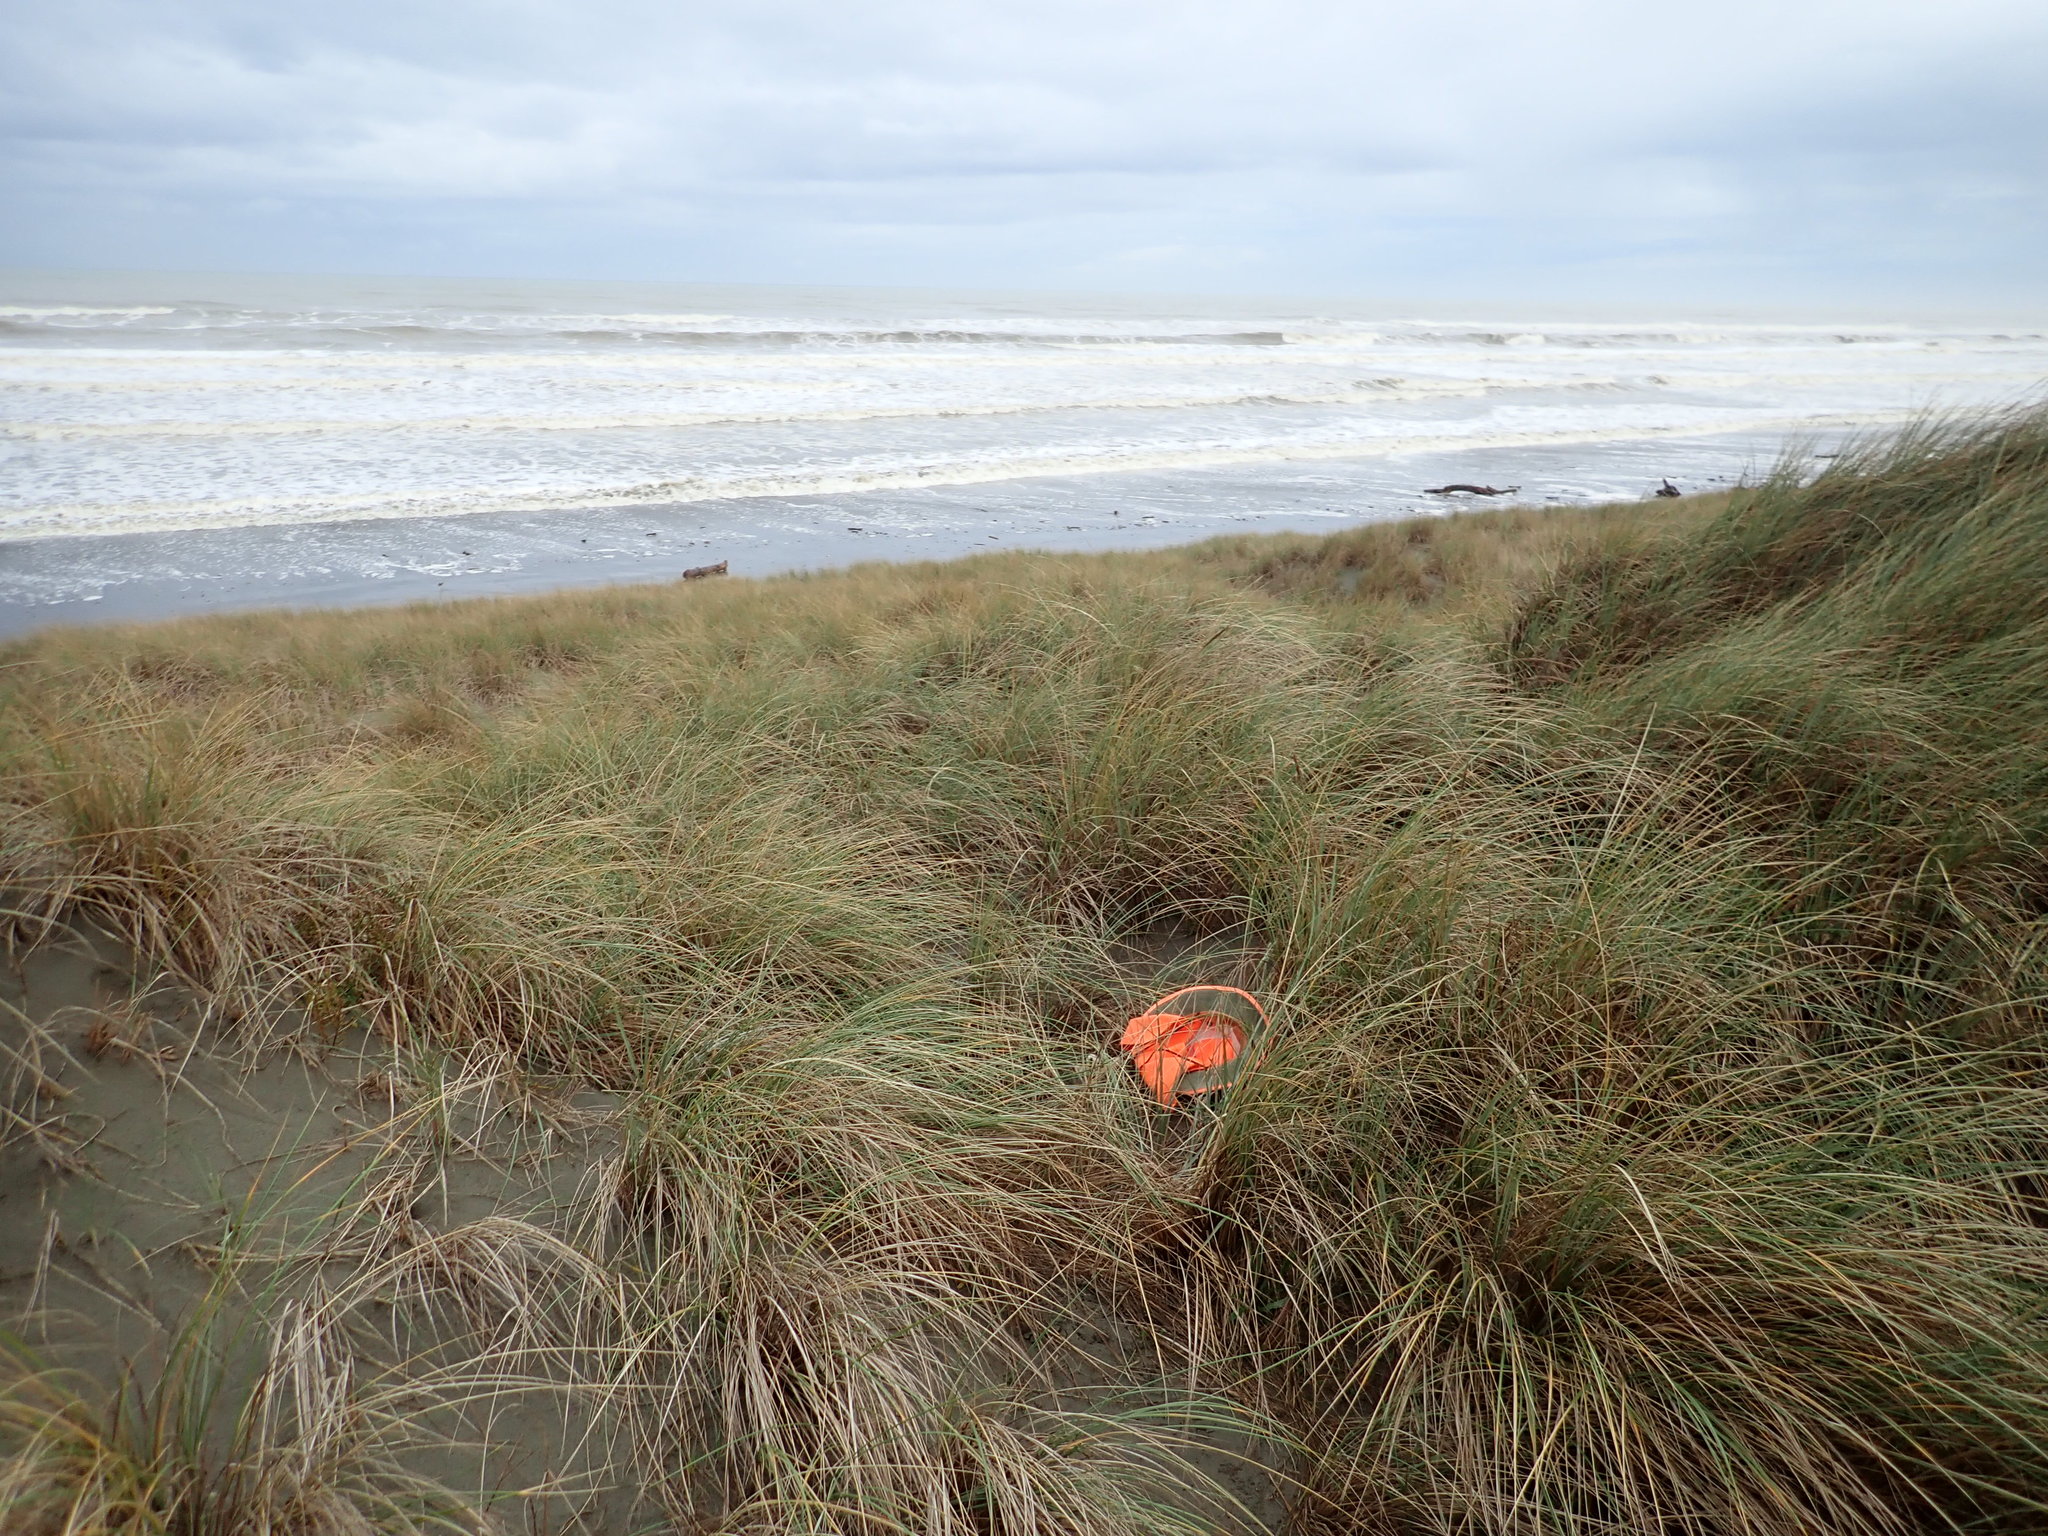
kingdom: Fungi
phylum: Basidiomycota
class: Agaricomycetes
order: Phallales
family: Phallaceae
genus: Ileodictyon
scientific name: Ileodictyon cibarium
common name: Basket fungus
